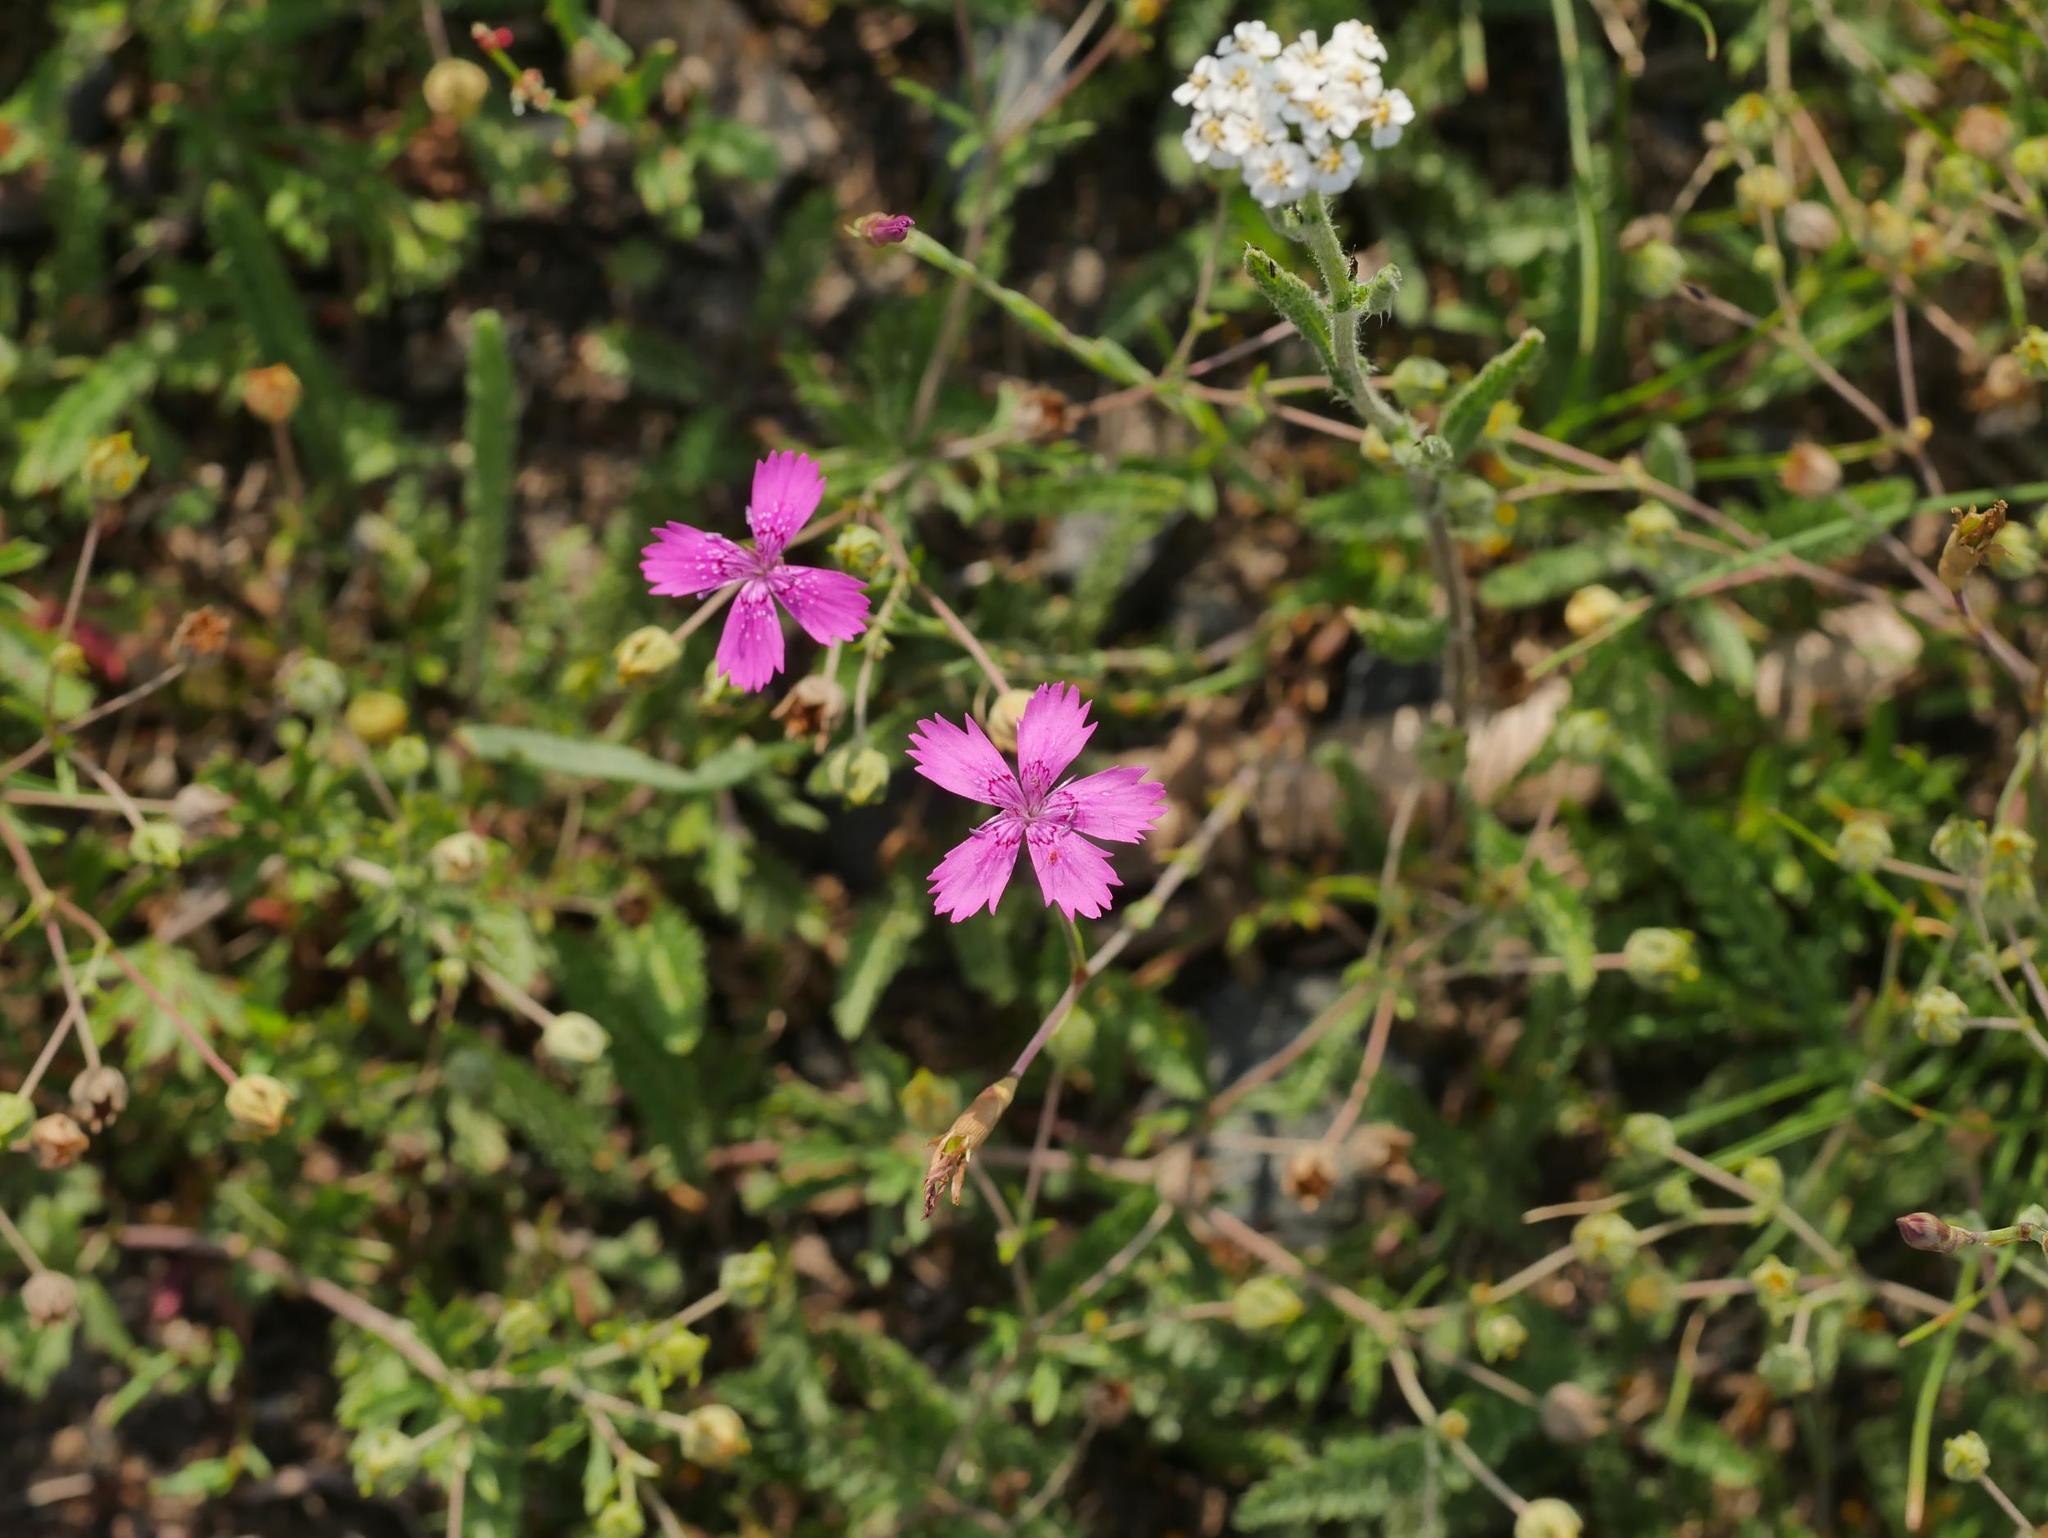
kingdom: Plantae
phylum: Tracheophyta
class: Magnoliopsida
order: Caryophyllales
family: Caryophyllaceae
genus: Dianthus
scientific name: Dianthus deltoides
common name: Maiden pink
